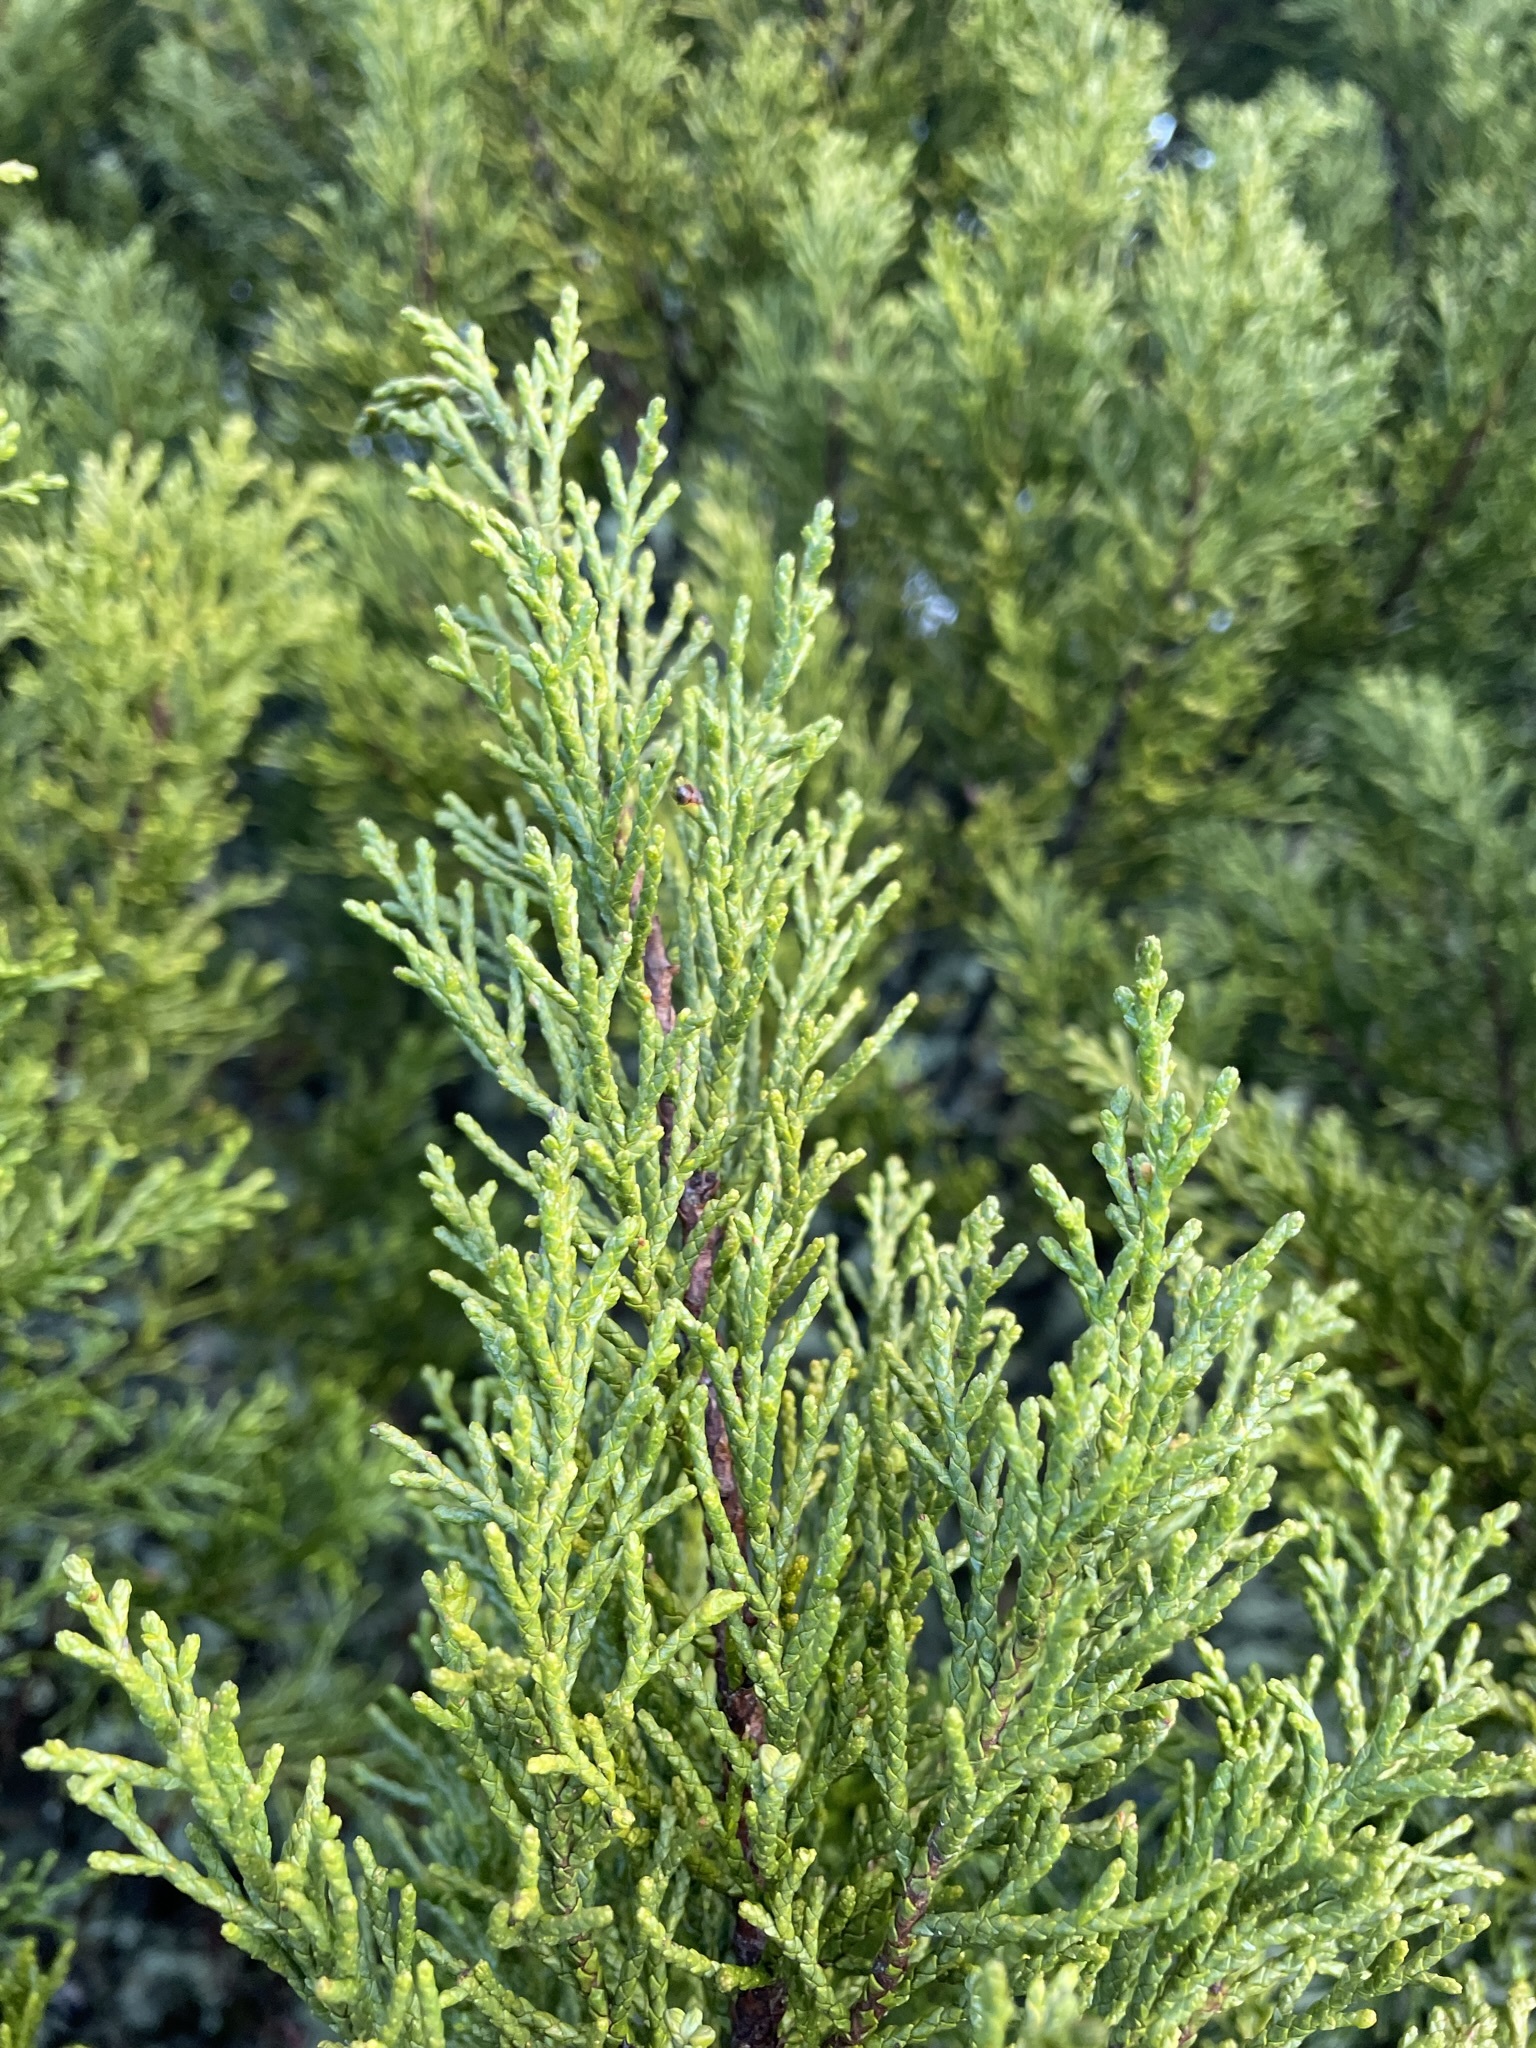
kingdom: Plantae
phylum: Tracheophyta
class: Pinopsida
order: Pinales
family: Podocarpaceae
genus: Halocarpus
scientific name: Halocarpus bidwillii
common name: Bog pine
